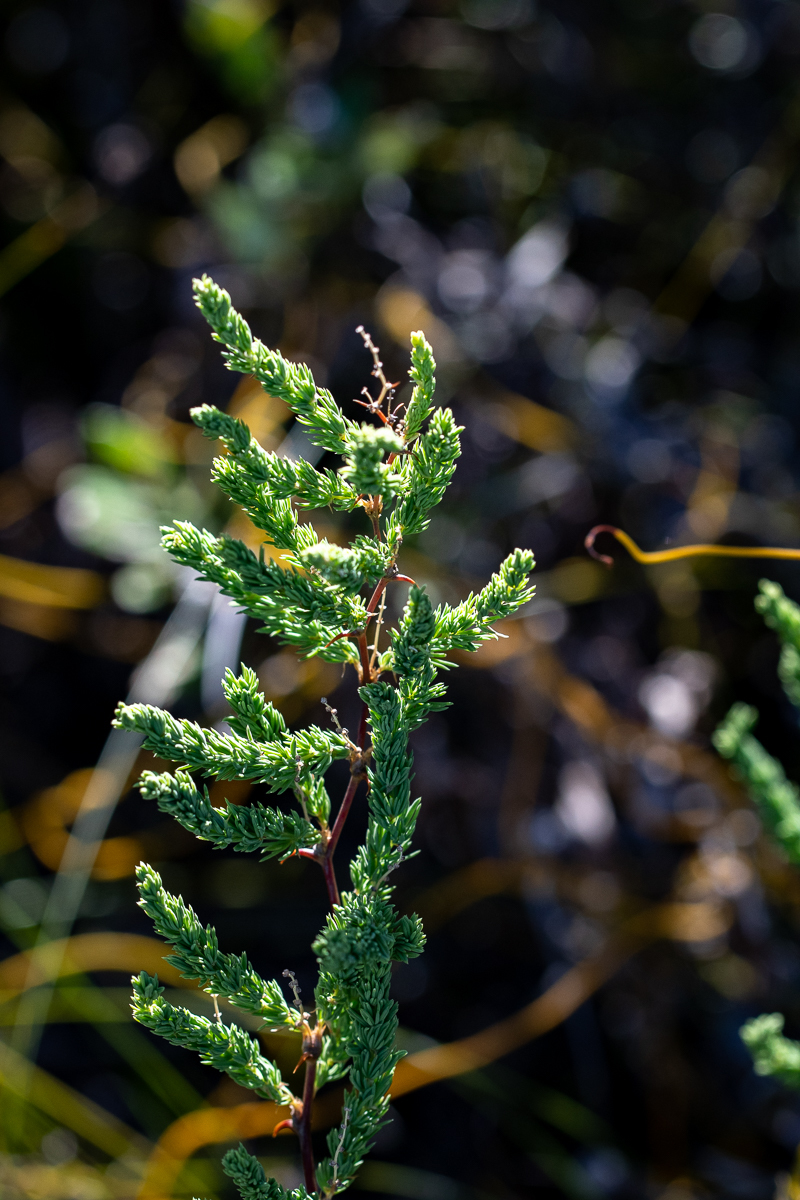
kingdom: Plantae
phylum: Tracheophyta
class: Liliopsida
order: Asparagales
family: Asparagaceae
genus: Asparagus
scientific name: Asparagus rubicundus
